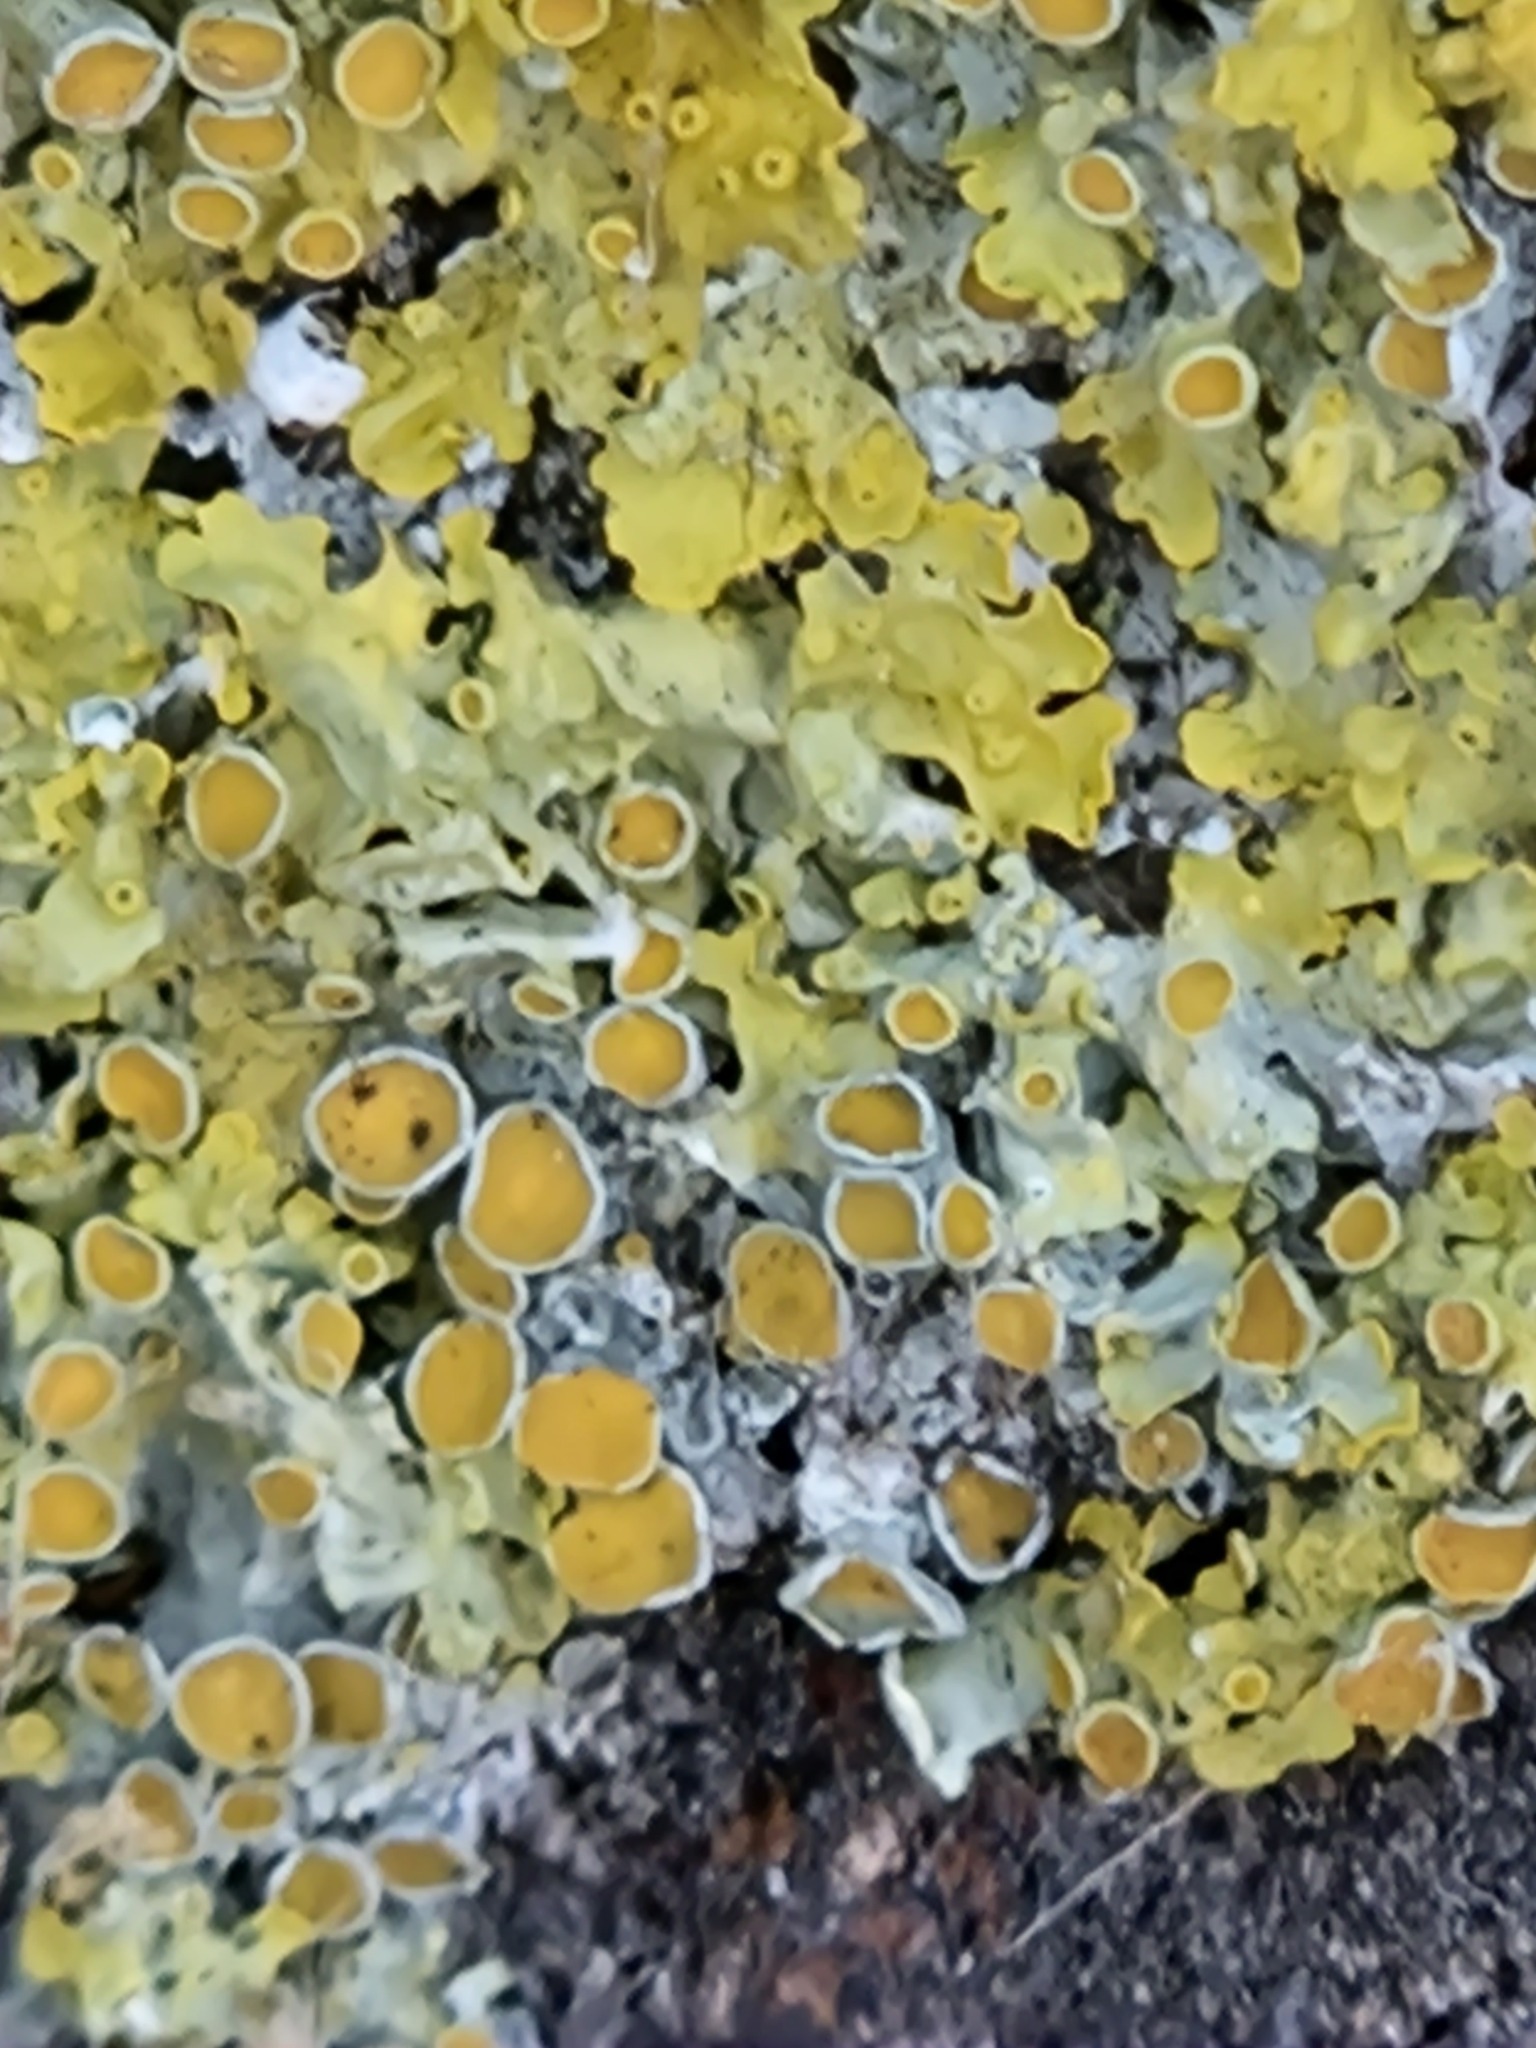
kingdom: Fungi
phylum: Ascomycota
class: Lecanoromycetes
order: Teloschistales
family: Teloschistaceae
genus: Xanthoria
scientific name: Xanthoria parietina
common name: Common orange lichen
